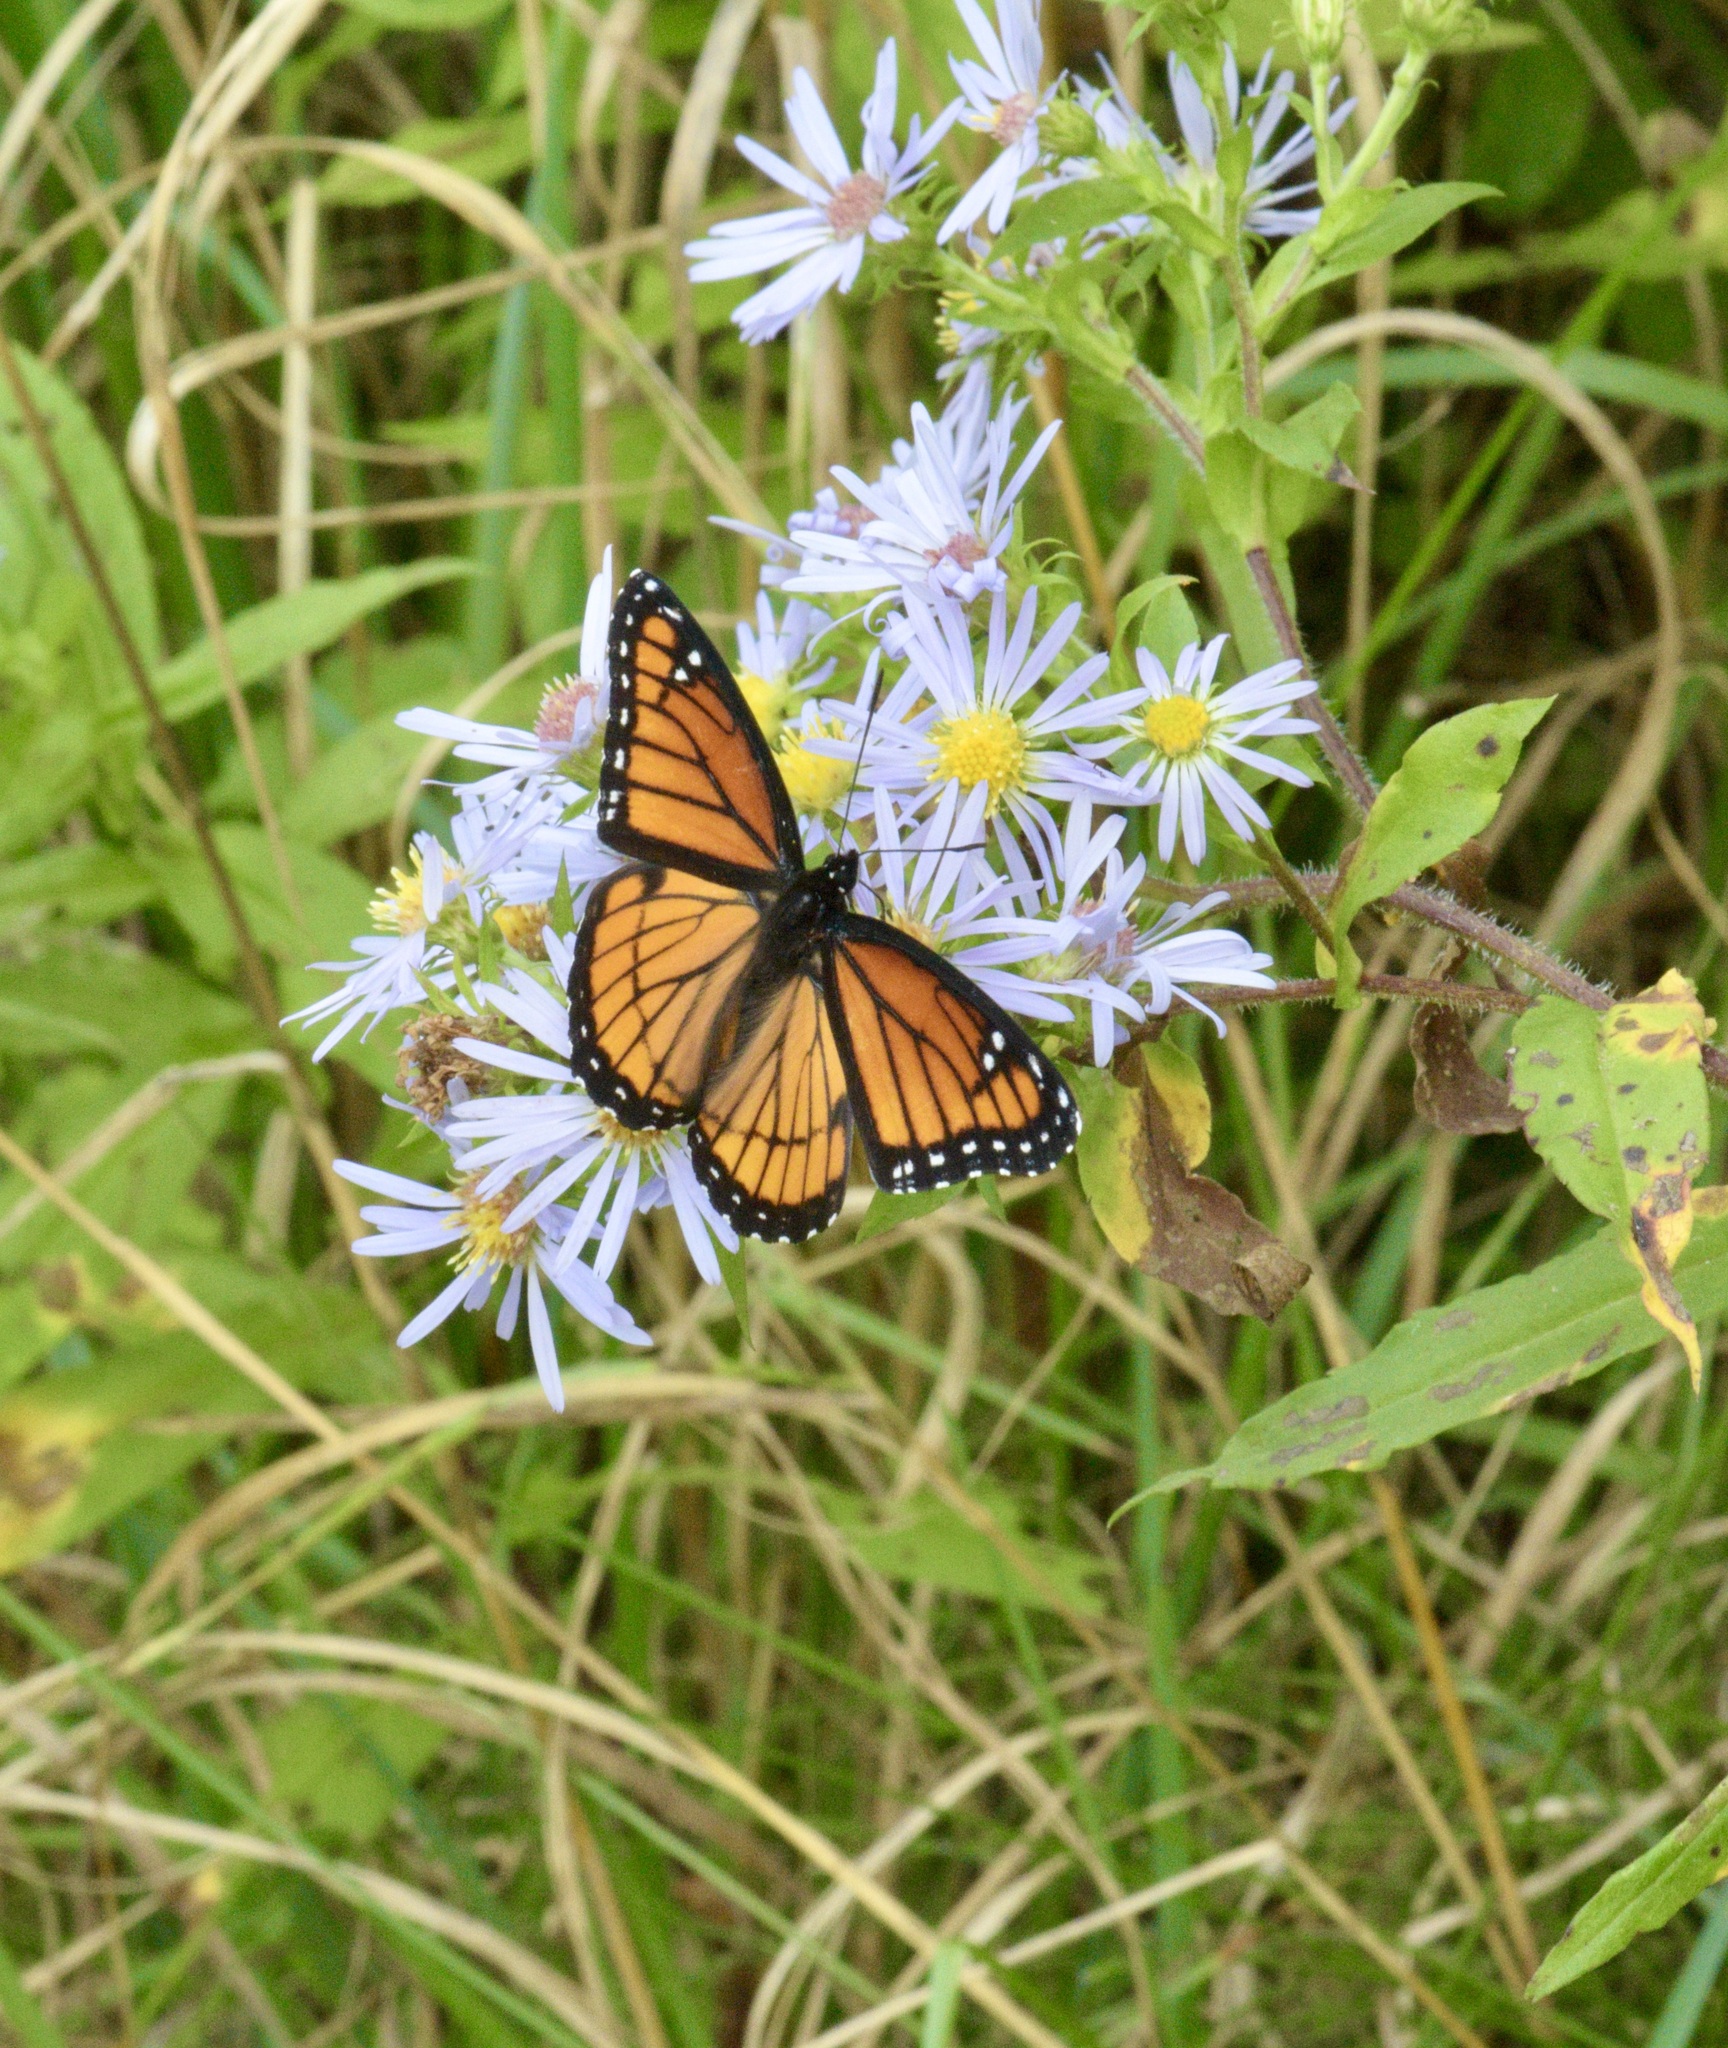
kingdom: Animalia
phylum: Arthropoda
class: Insecta
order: Lepidoptera
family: Nymphalidae
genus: Limenitis
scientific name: Limenitis archippus
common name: Viceroy
